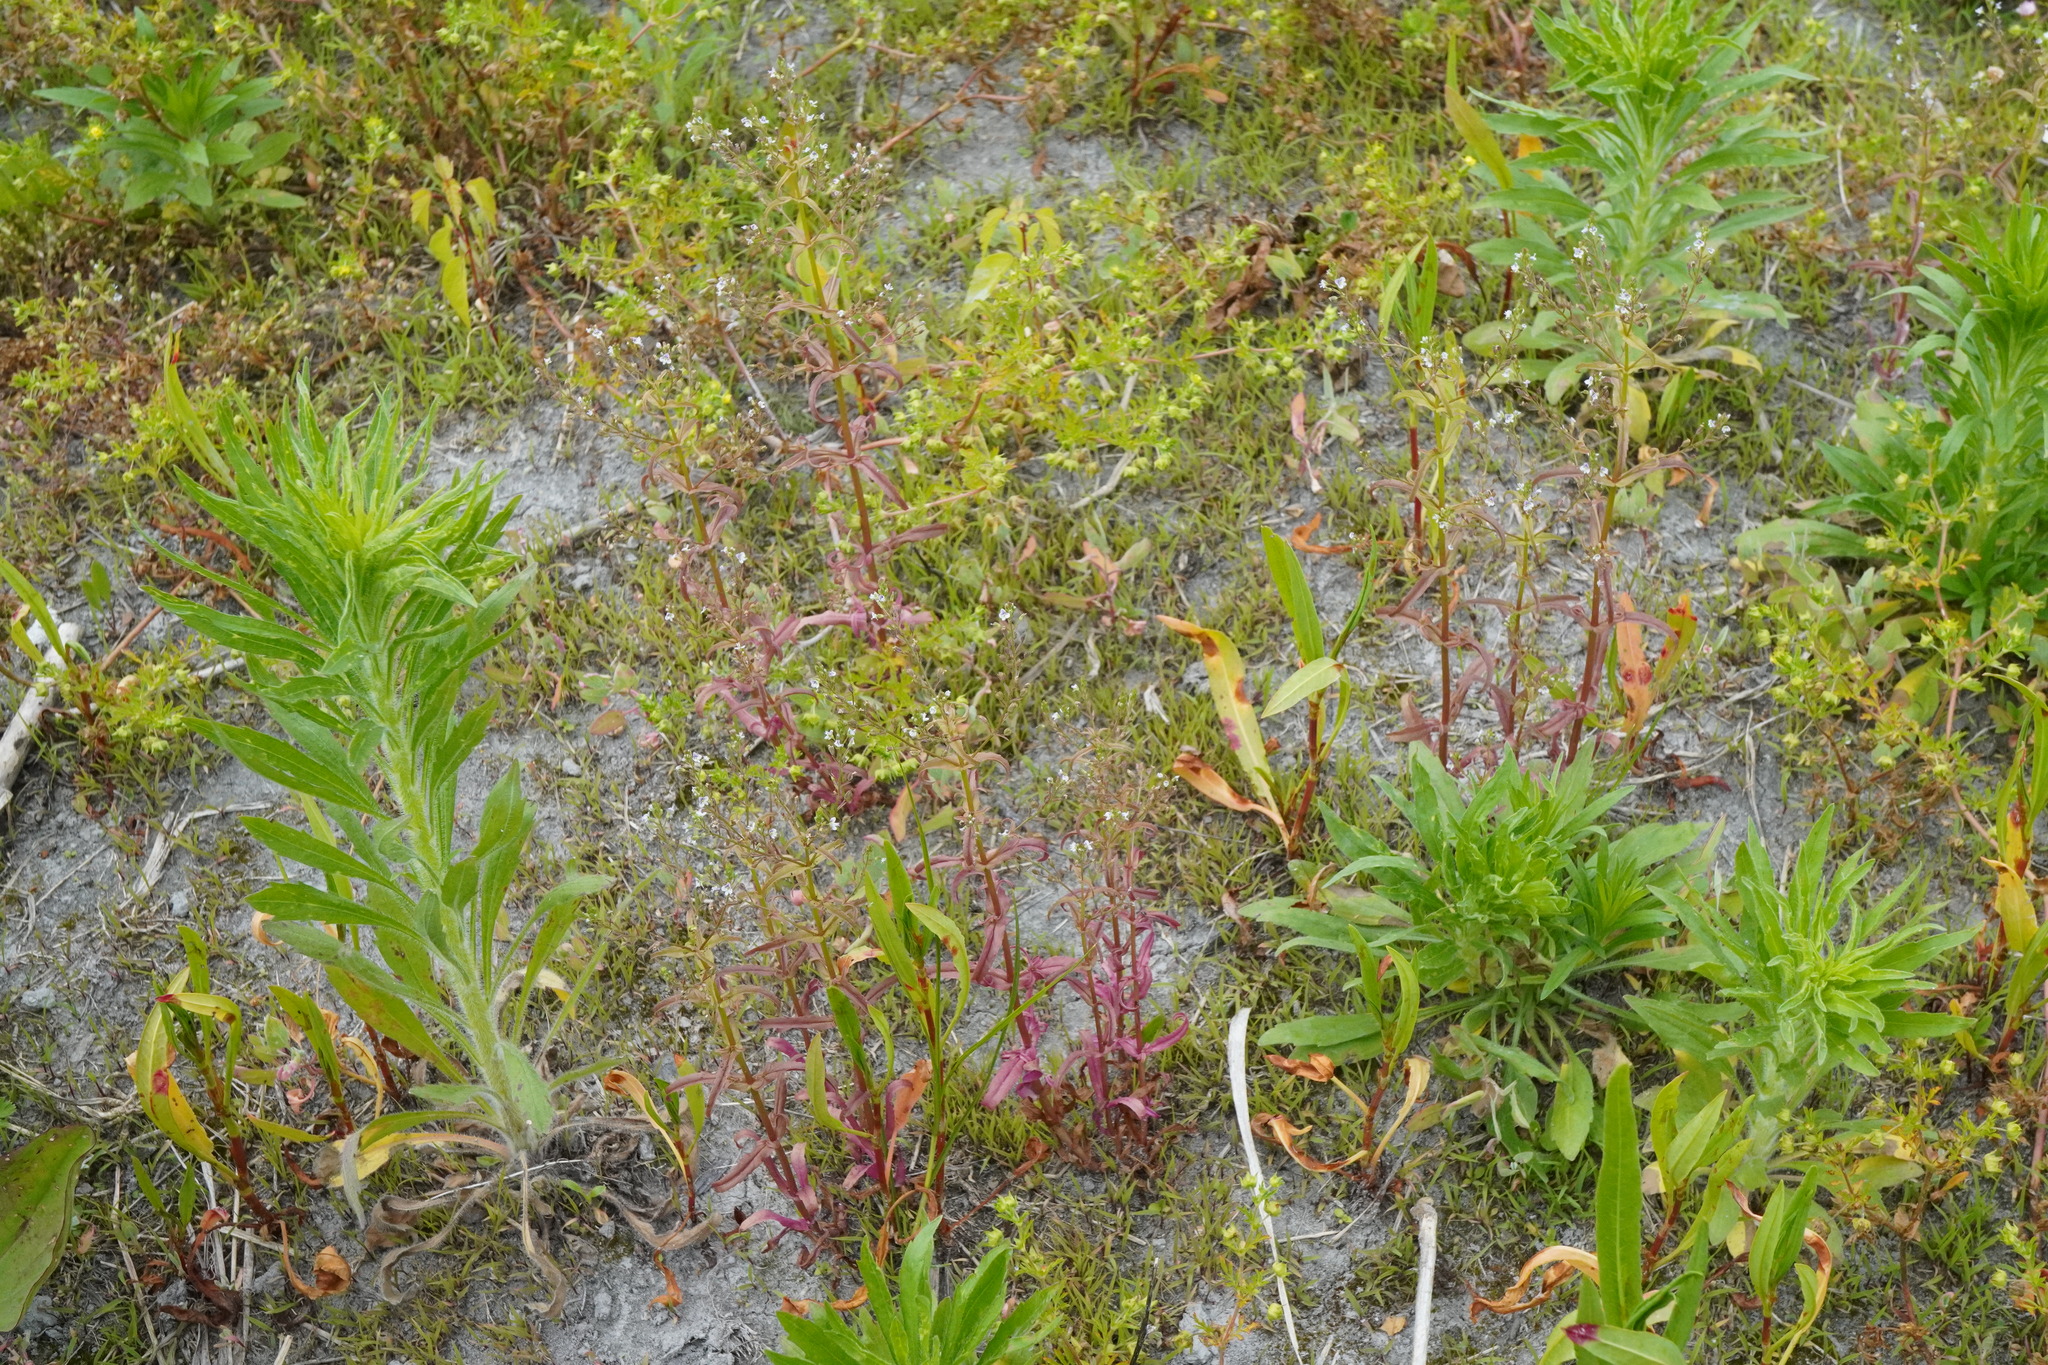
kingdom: Plantae
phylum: Tracheophyta
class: Magnoliopsida
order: Lamiales
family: Plantaginaceae
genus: Veronica
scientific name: Veronica anagalloides
